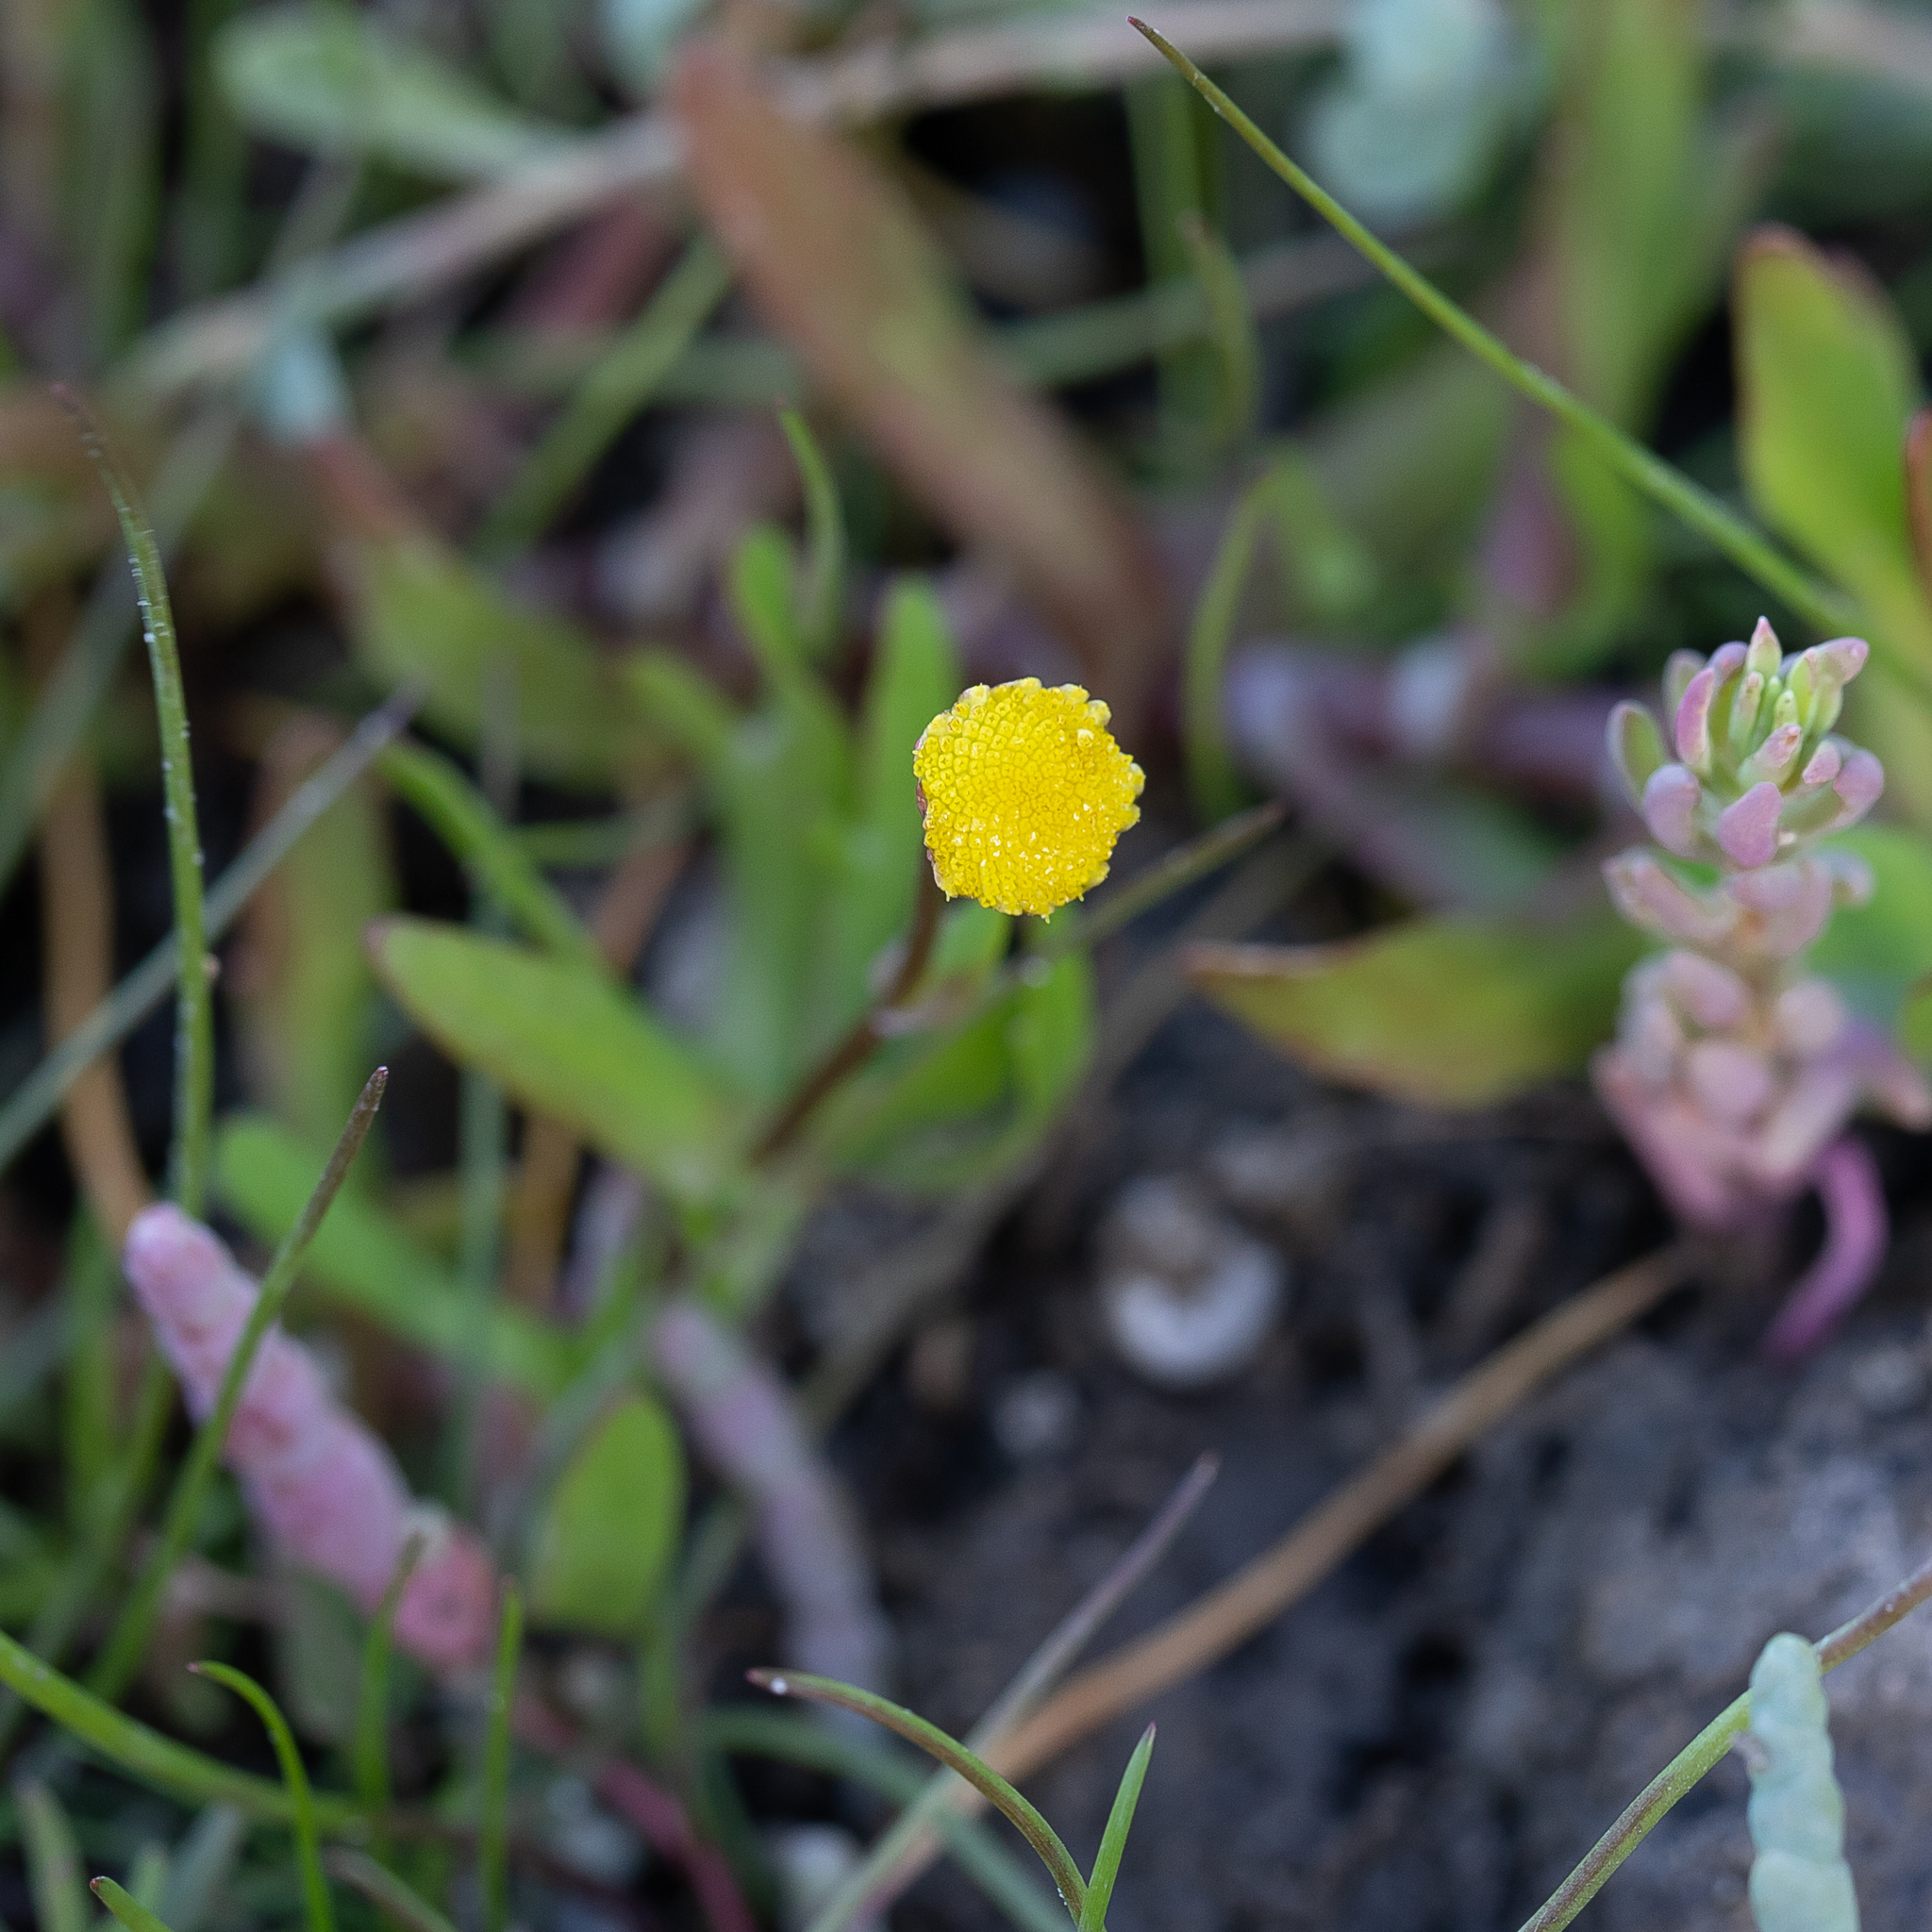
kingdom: Plantae
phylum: Tracheophyta
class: Magnoliopsida
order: Asterales
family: Asteraceae
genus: Cotula
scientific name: Cotula coronopifolia
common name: Buttonweed
